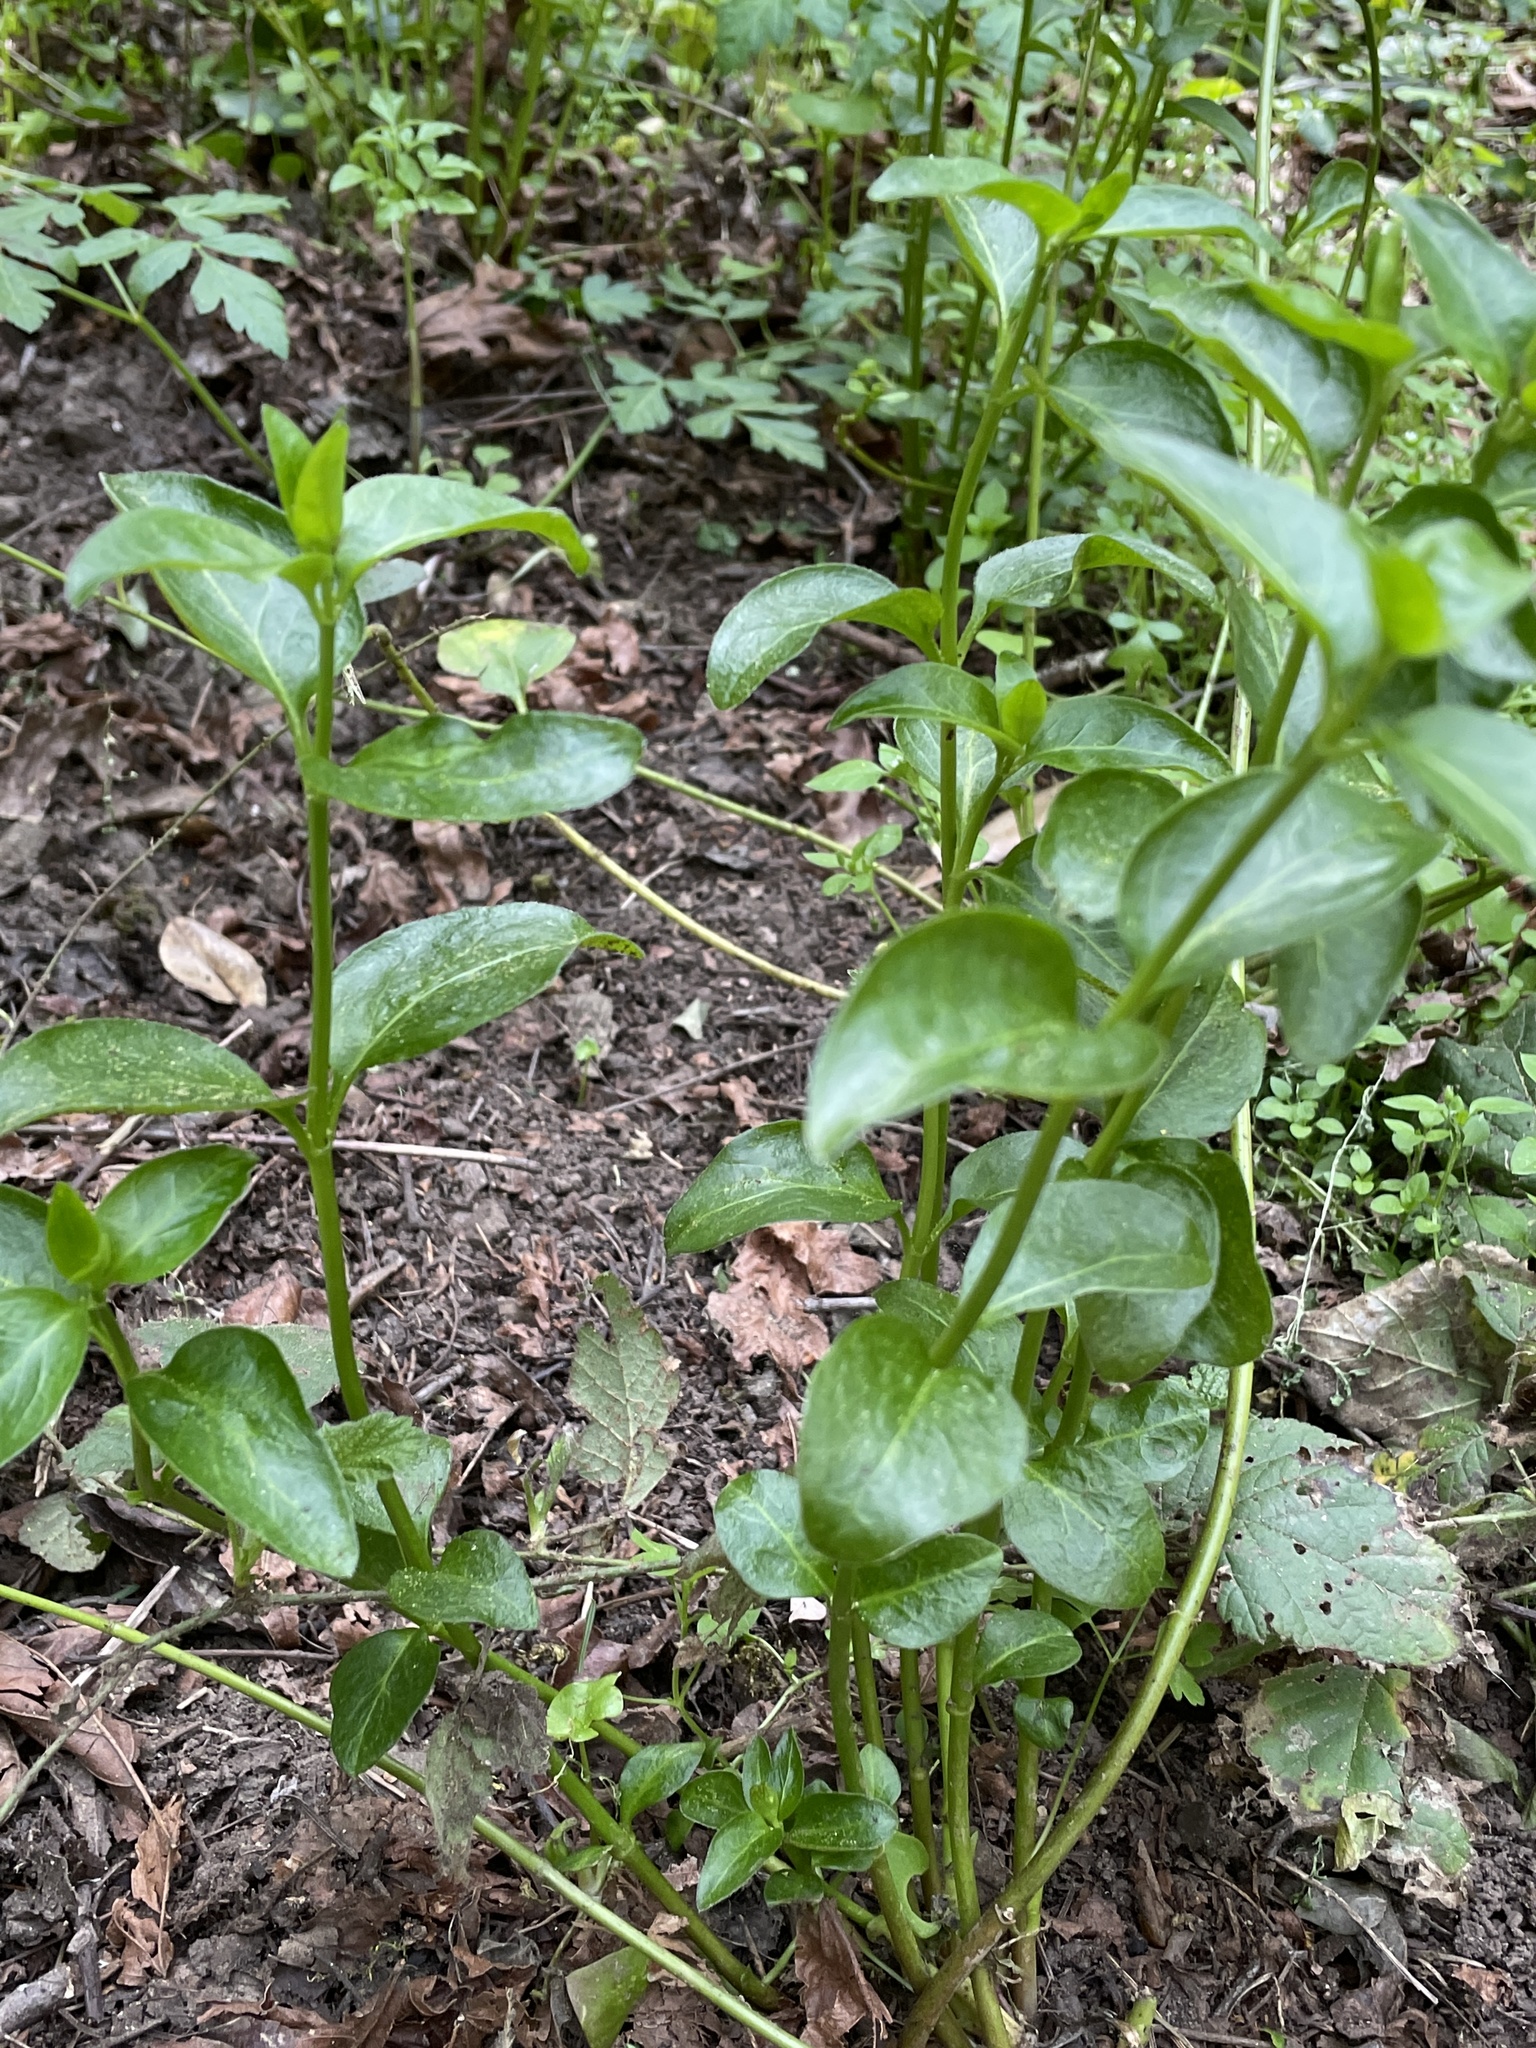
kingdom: Plantae
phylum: Tracheophyta
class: Magnoliopsida
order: Gentianales
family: Apocynaceae
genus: Vinca
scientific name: Vinca major
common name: Greater periwinkle
